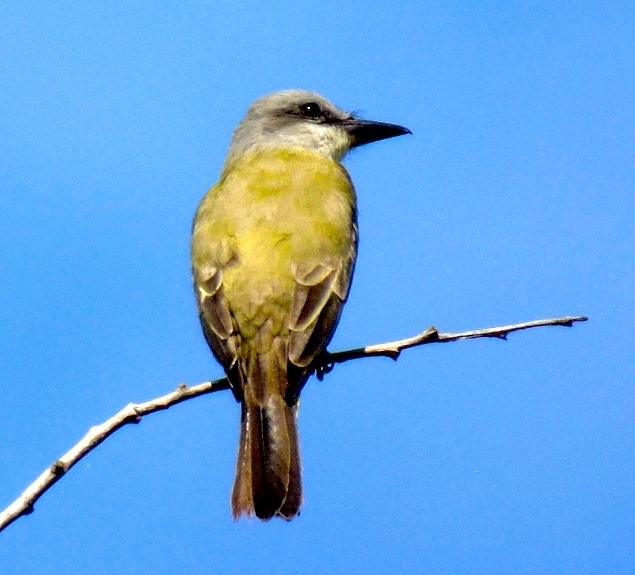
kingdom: Animalia
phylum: Chordata
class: Aves
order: Passeriformes
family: Tyrannidae
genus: Tyrannus
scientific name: Tyrannus melancholicus
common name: Tropical kingbird
